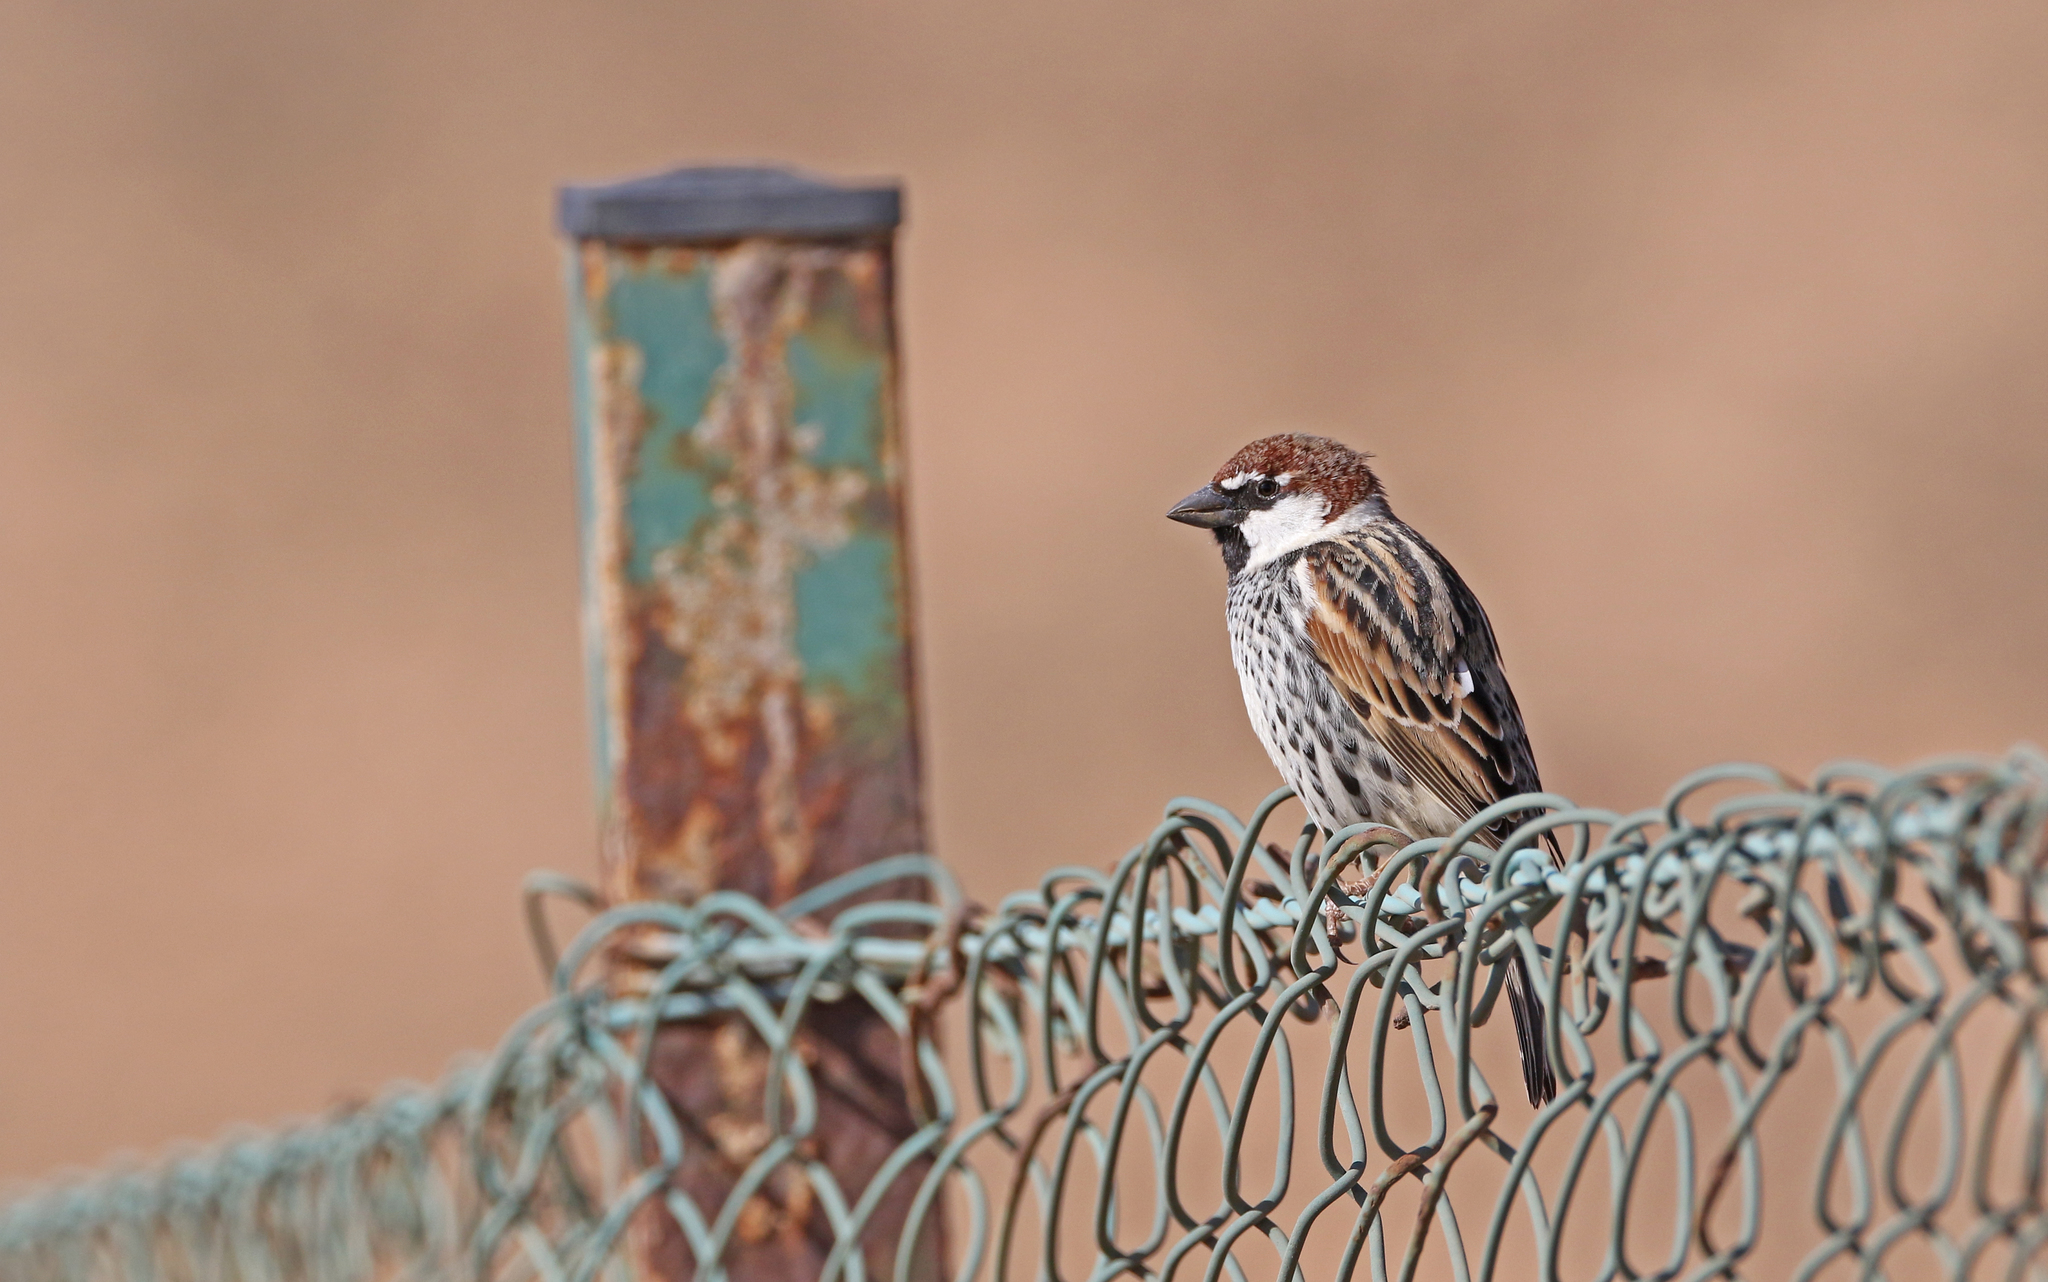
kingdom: Animalia
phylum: Chordata
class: Aves
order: Passeriformes
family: Passeridae
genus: Passer
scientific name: Passer hispaniolensis
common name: Spanish sparrow
